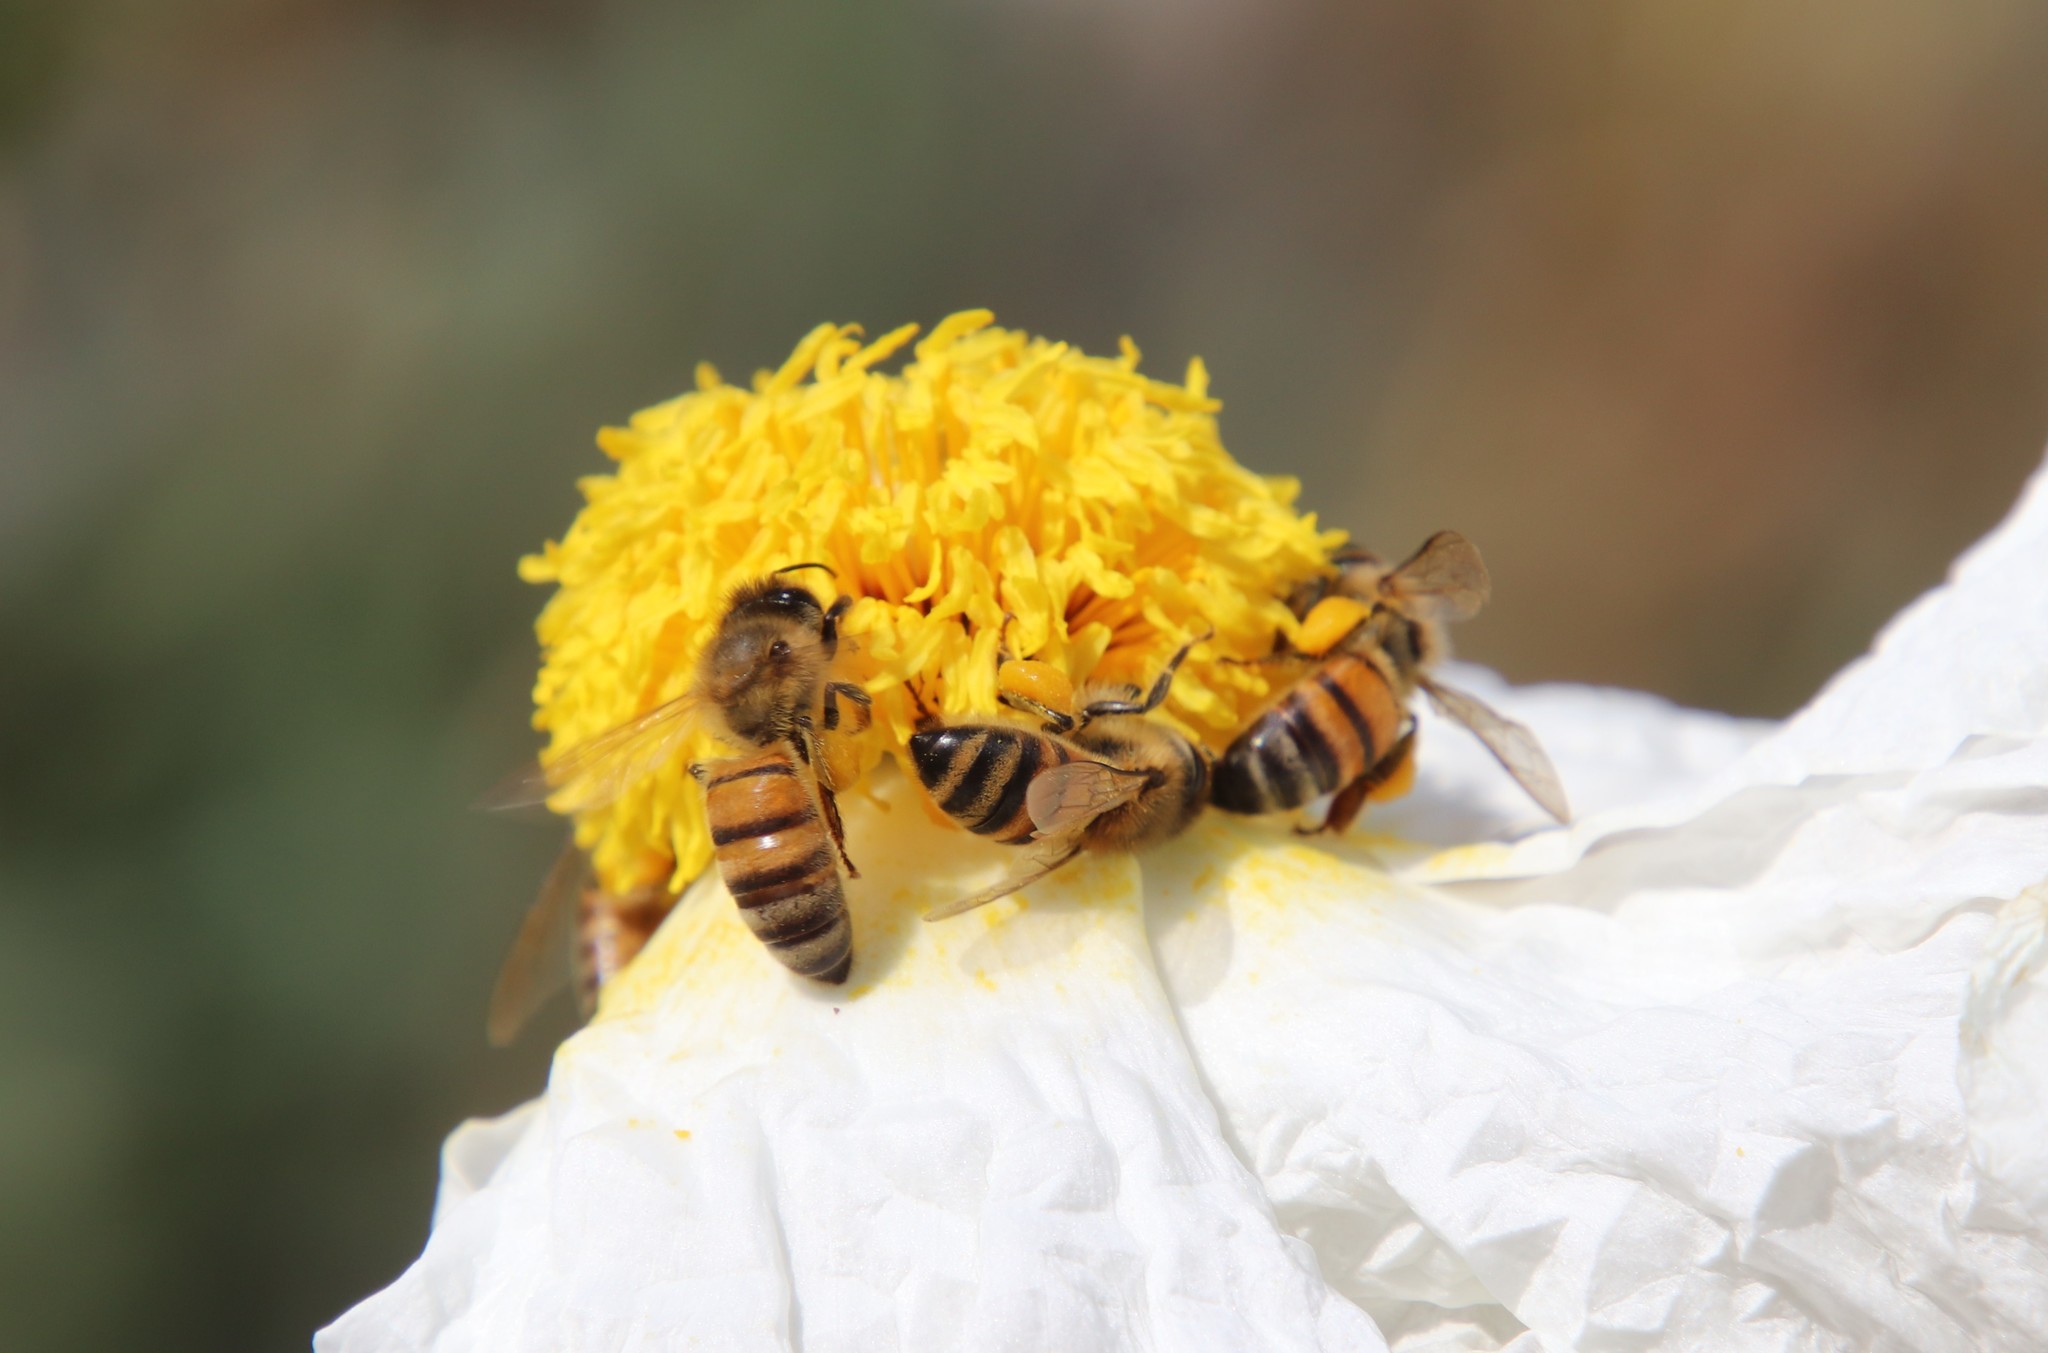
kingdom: Animalia
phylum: Arthropoda
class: Insecta
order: Hymenoptera
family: Apidae
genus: Apis
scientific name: Apis mellifera
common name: Honey bee
